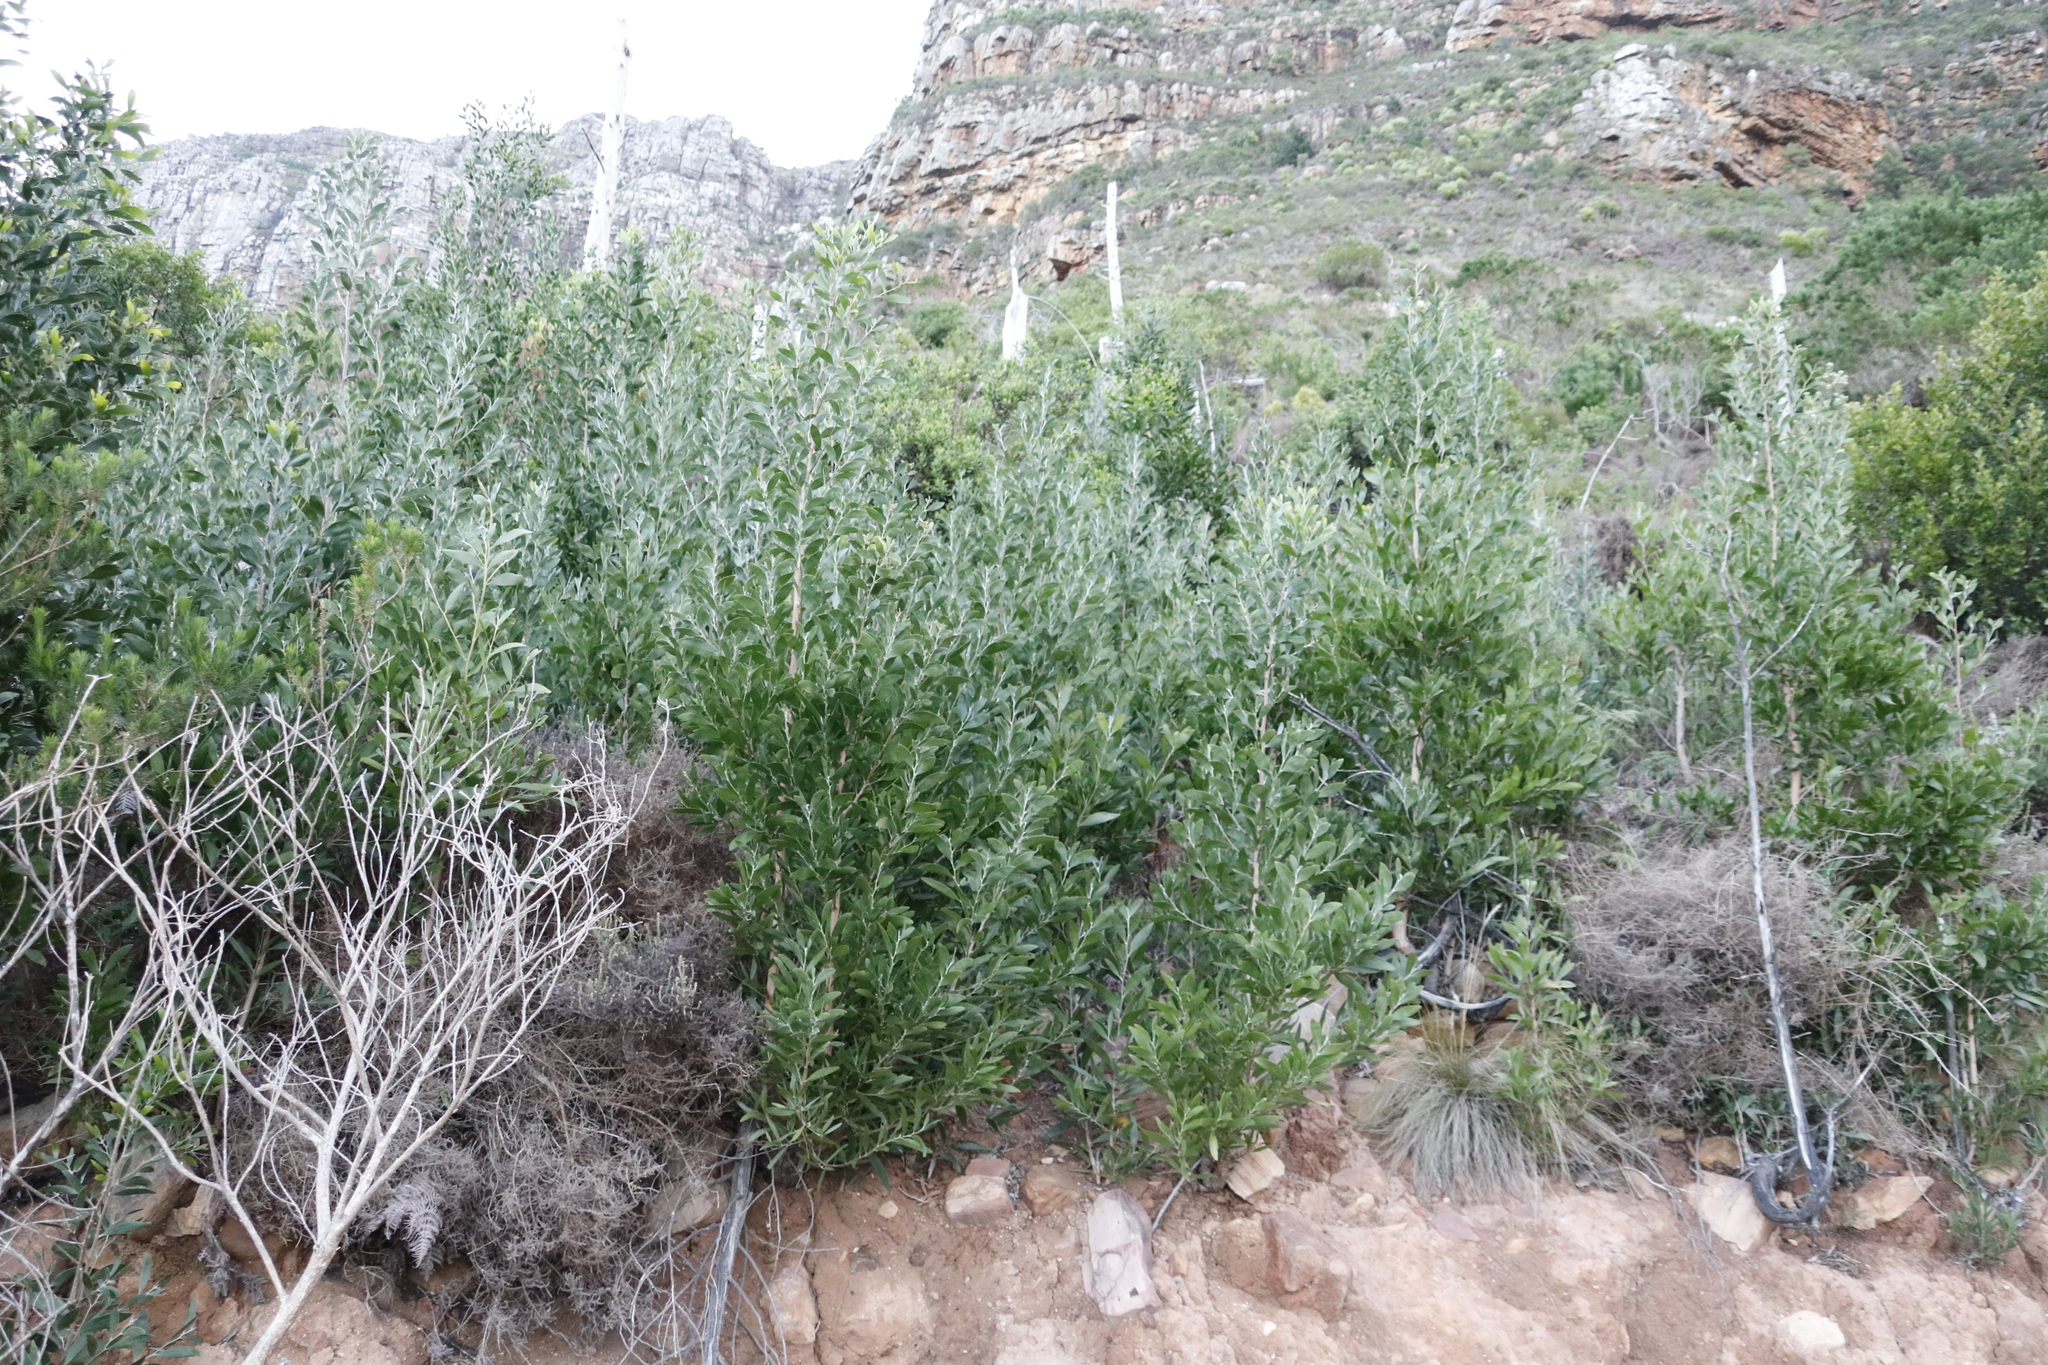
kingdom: Plantae
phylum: Tracheophyta
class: Magnoliopsida
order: Fabales
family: Fabaceae
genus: Acacia
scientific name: Acacia melanoxylon
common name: Blackwood
